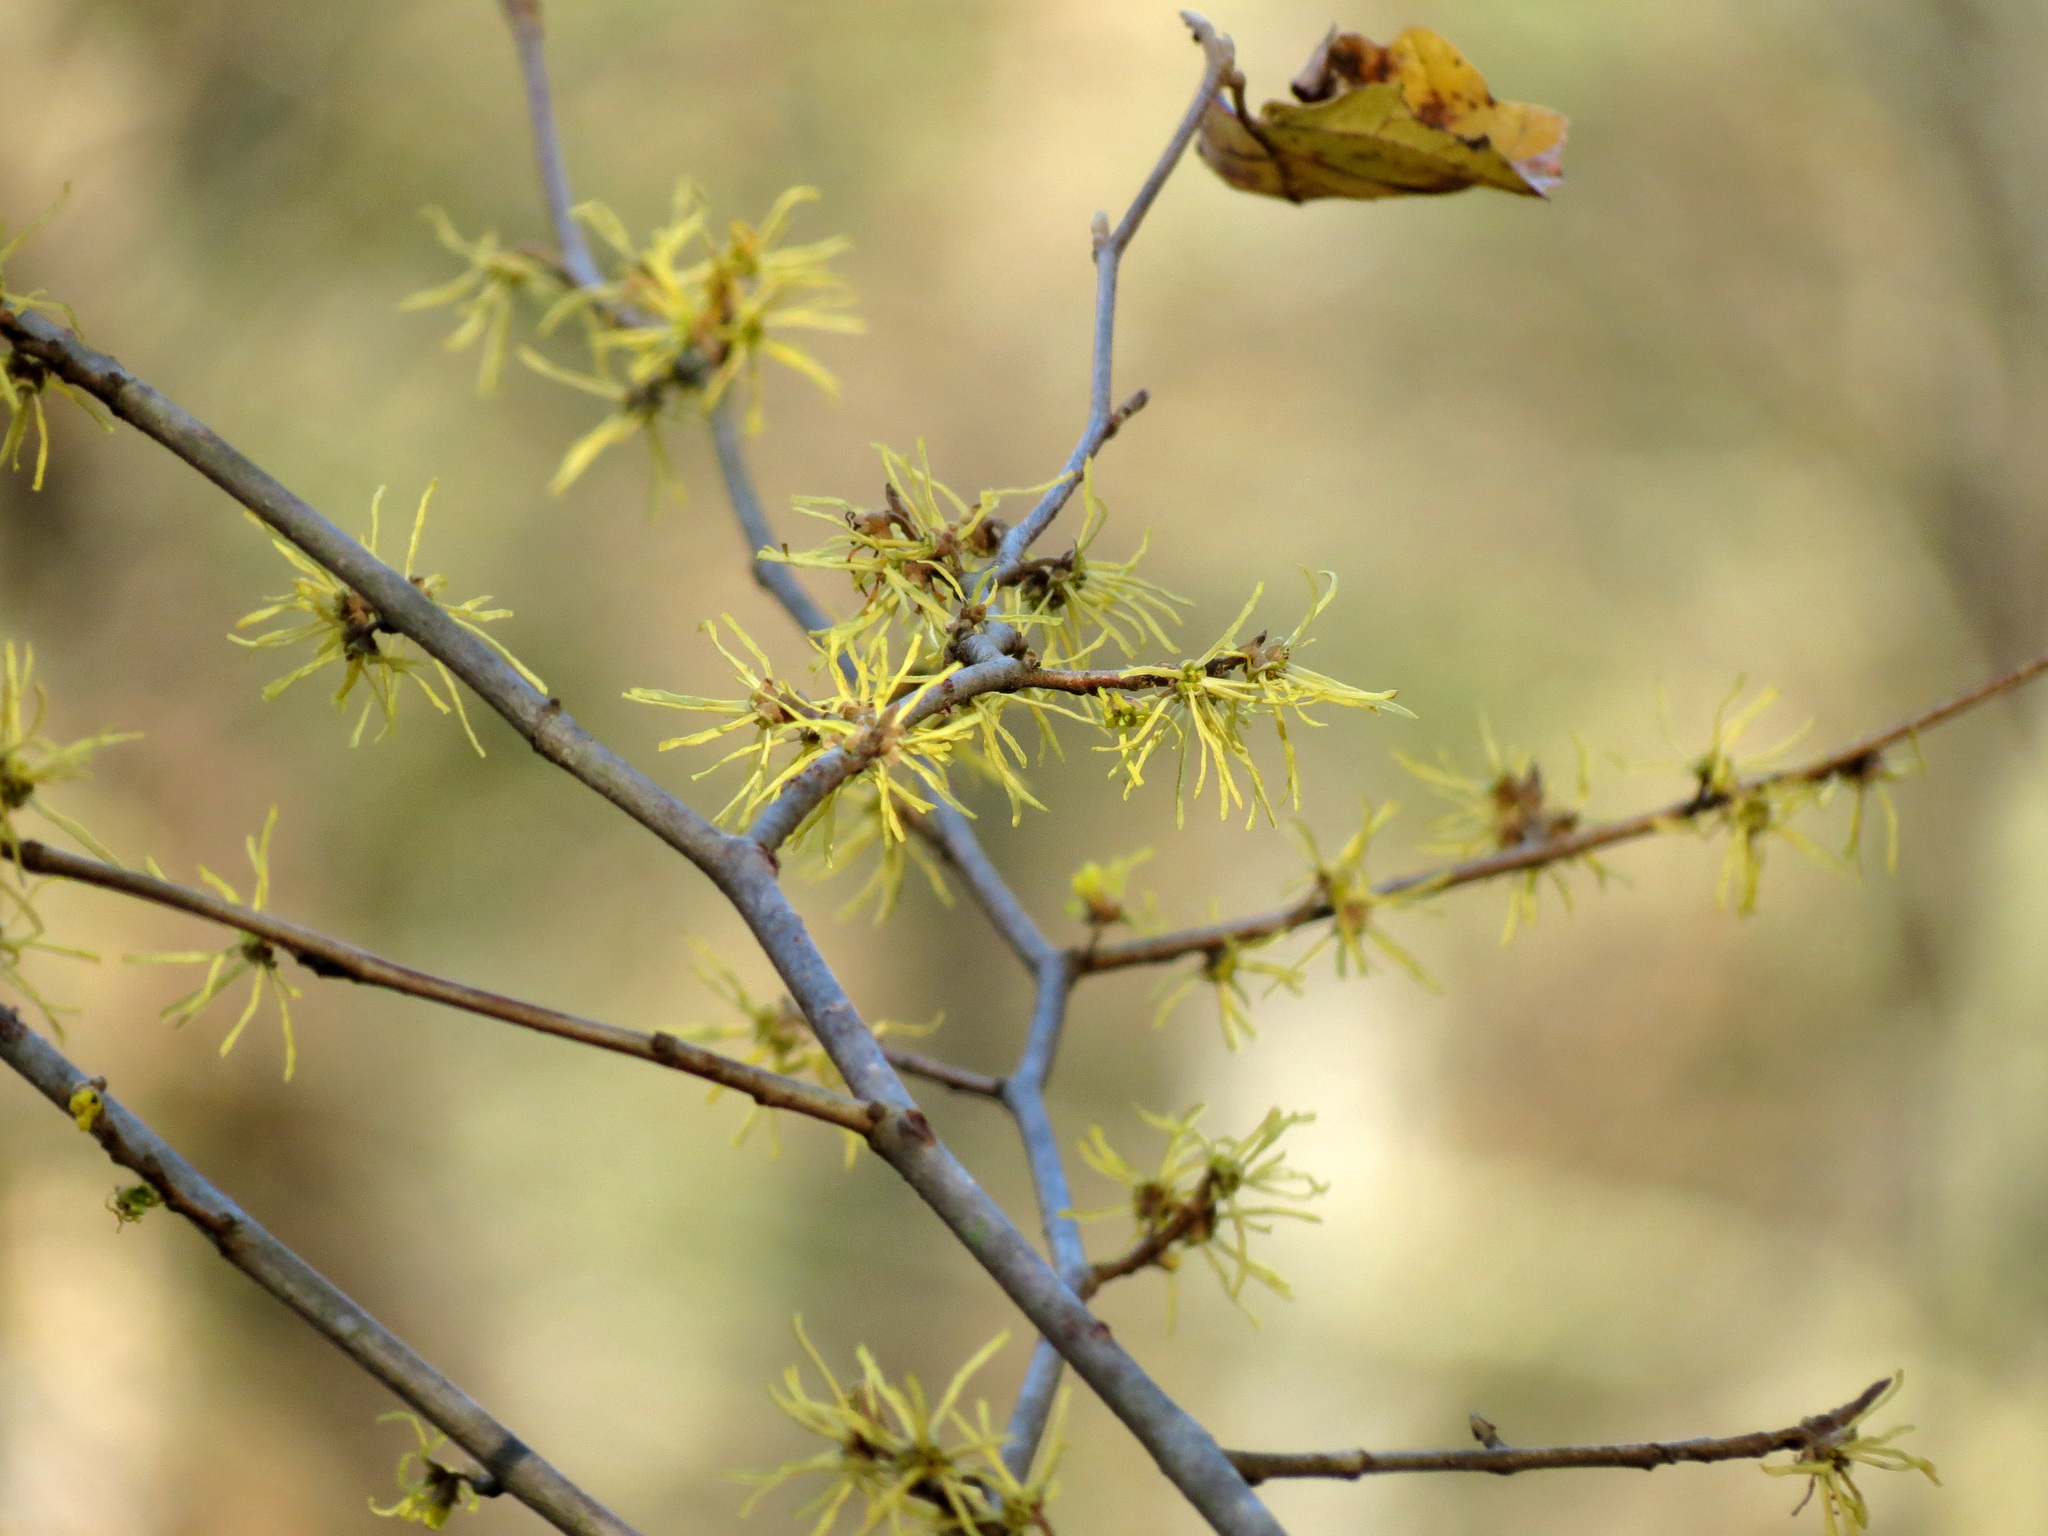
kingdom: Plantae
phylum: Tracheophyta
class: Magnoliopsida
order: Saxifragales
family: Hamamelidaceae
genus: Hamamelis
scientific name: Hamamelis virginiana
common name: Witch-hazel
